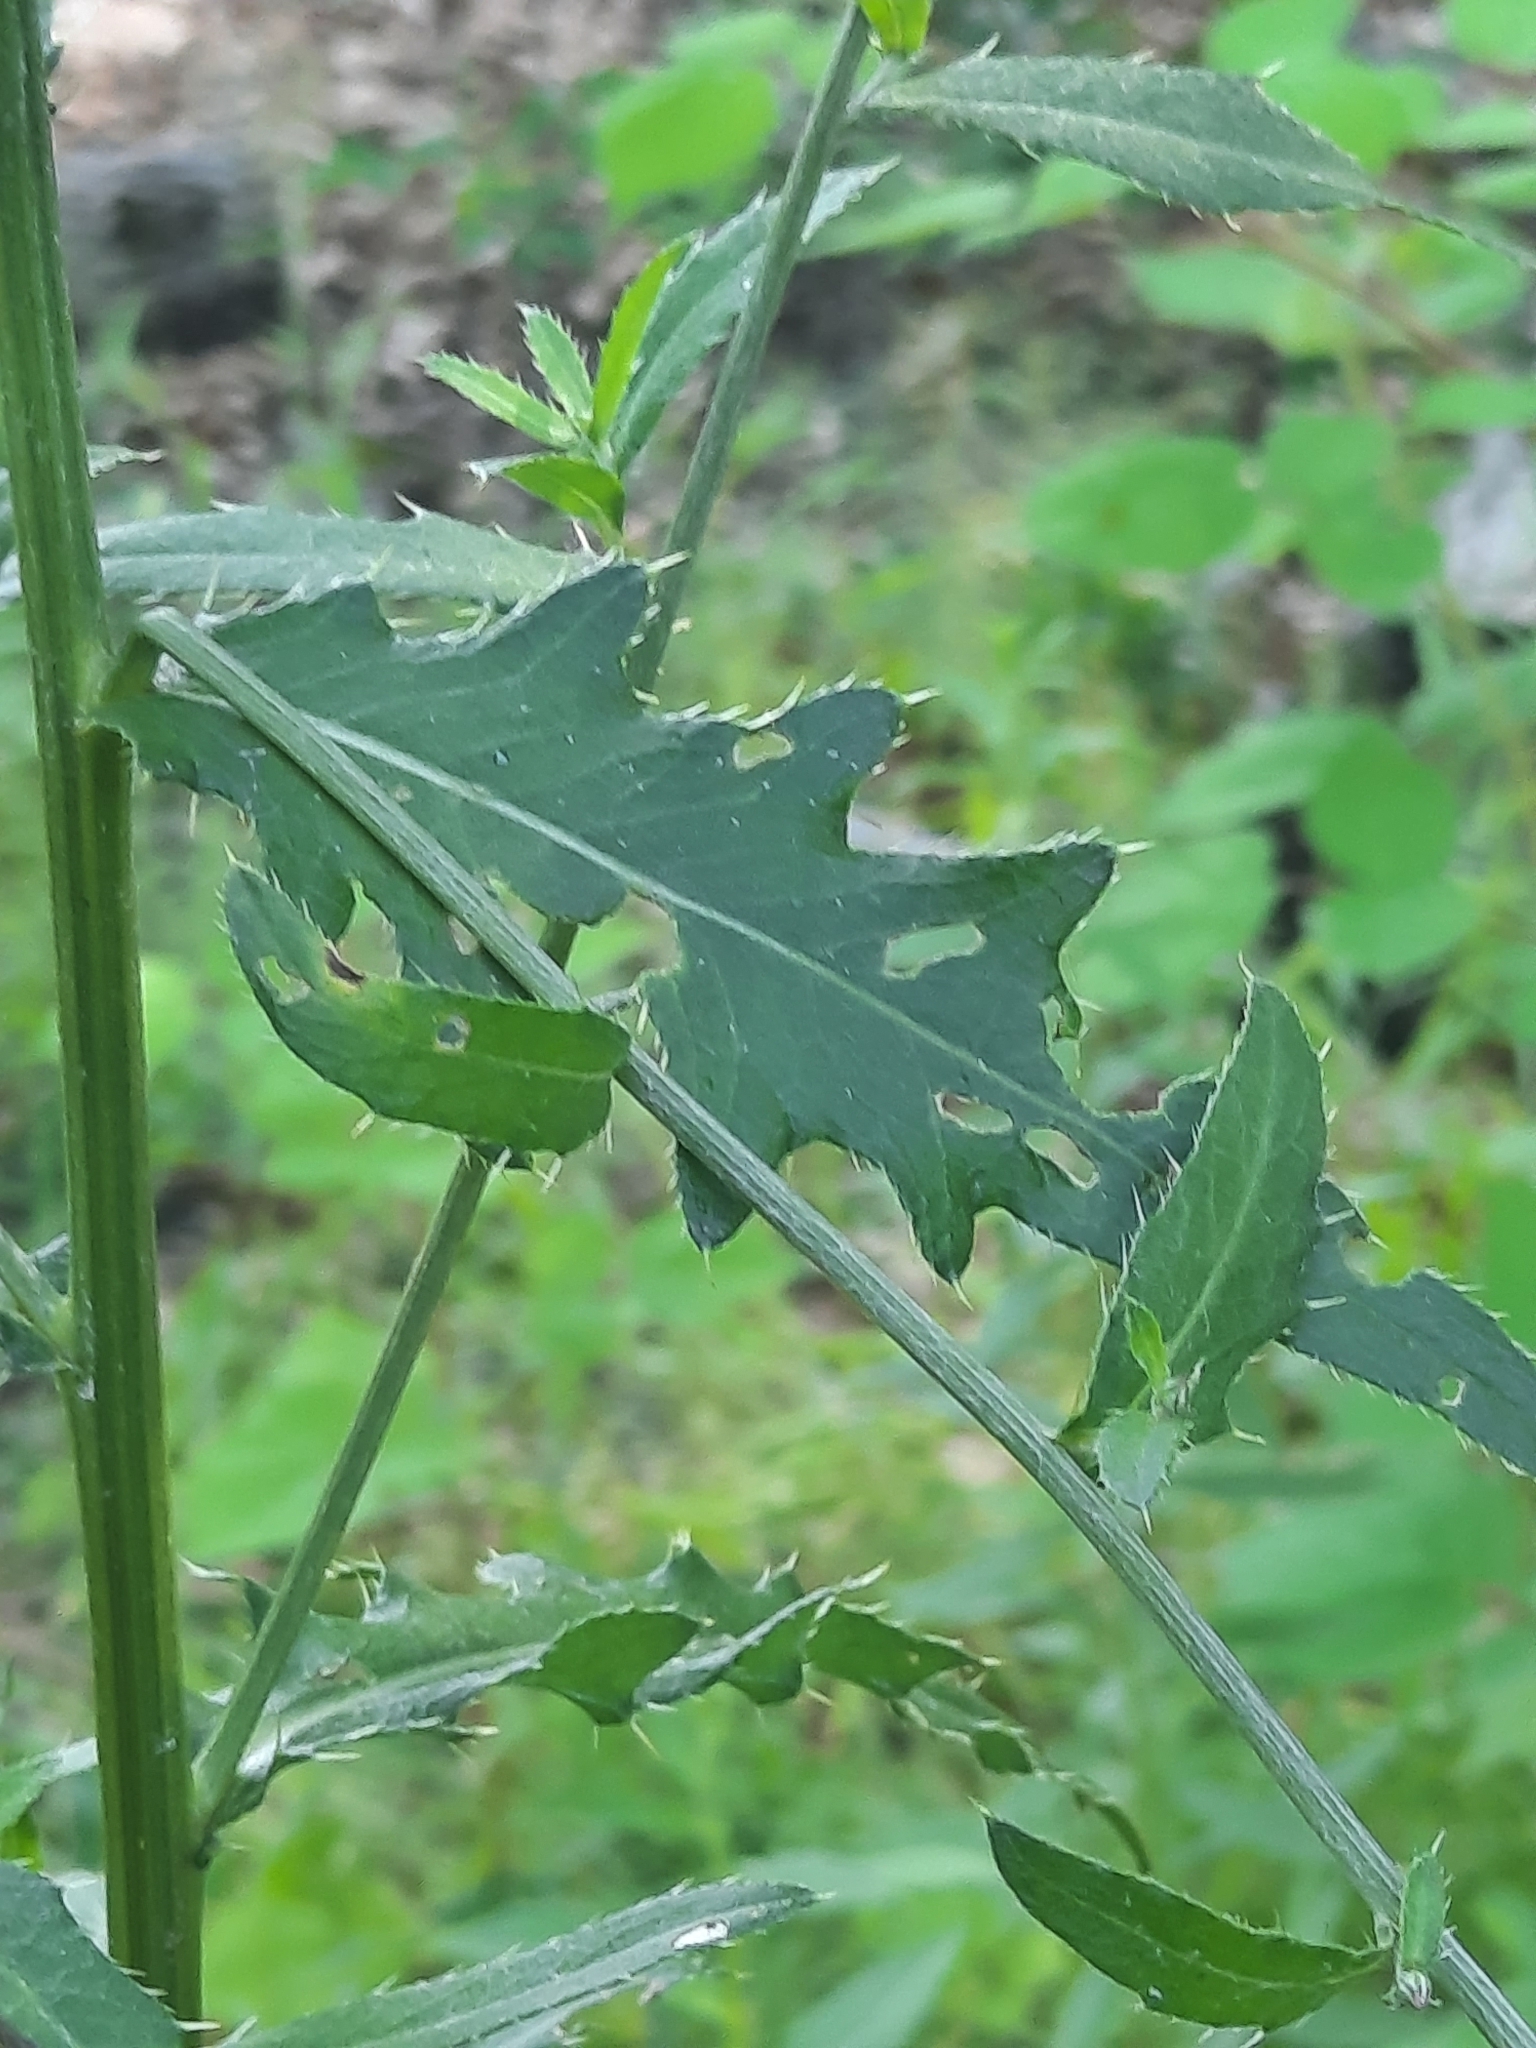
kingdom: Plantae
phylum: Tracheophyta
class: Magnoliopsida
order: Asterales
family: Asteraceae
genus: Cirsium
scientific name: Cirsium arvense
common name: Creeping thistle
